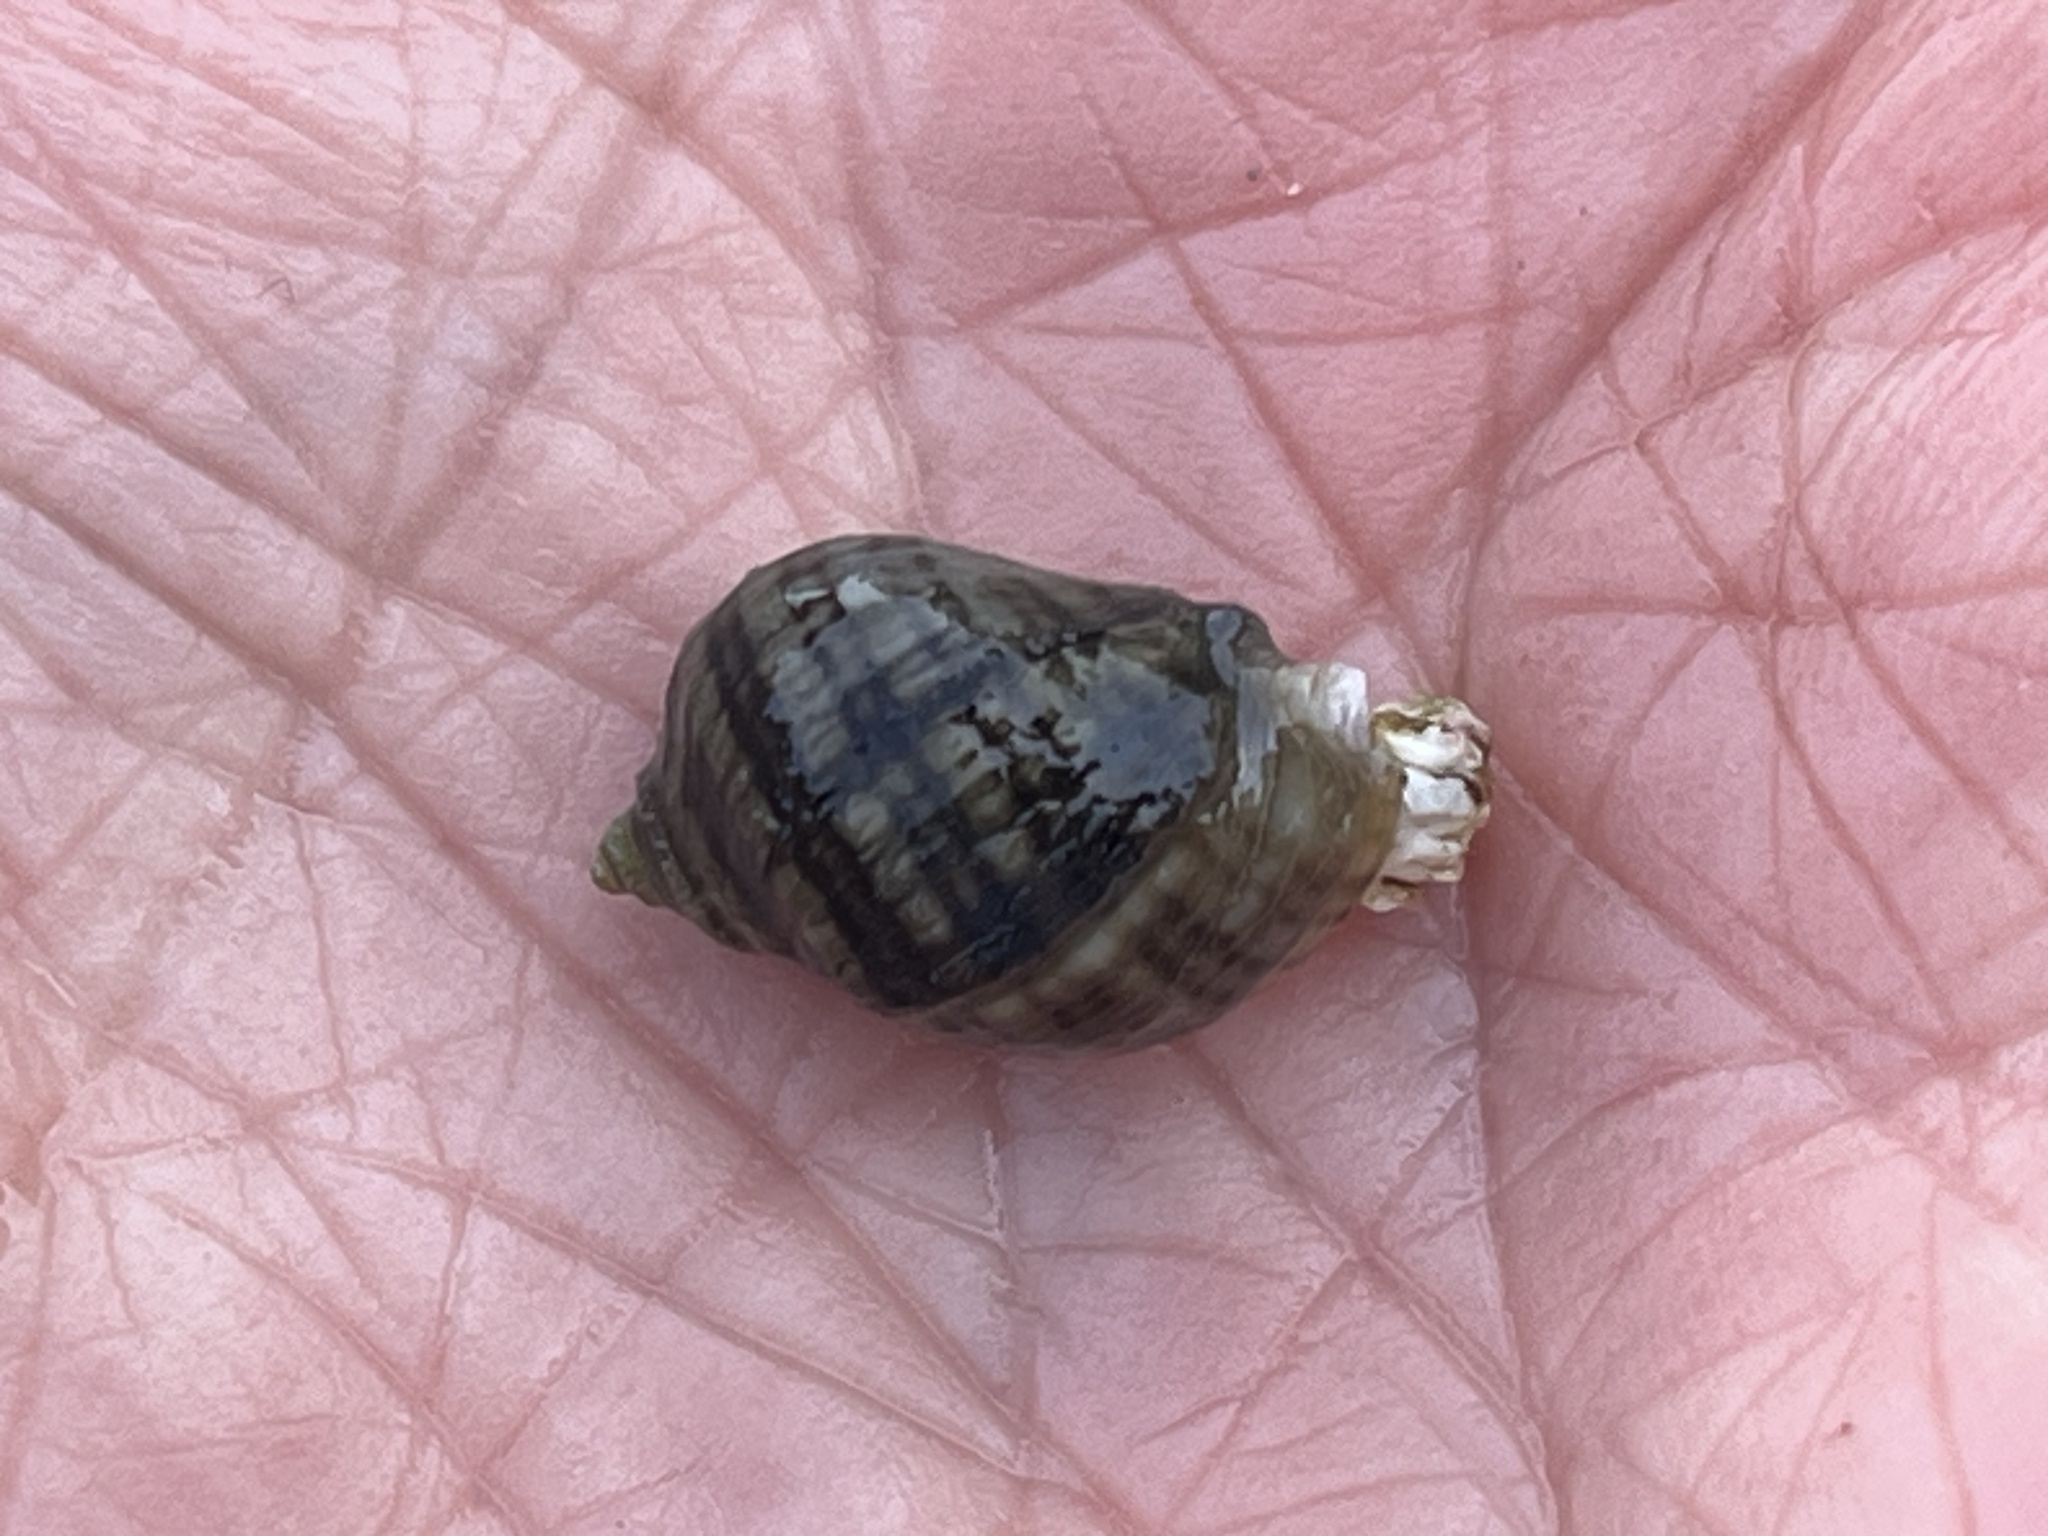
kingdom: Animalia
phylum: Mollusca
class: Gastropoda
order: Neogastropoda
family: Muricidae
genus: Nucella
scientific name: Nucella ostrina
